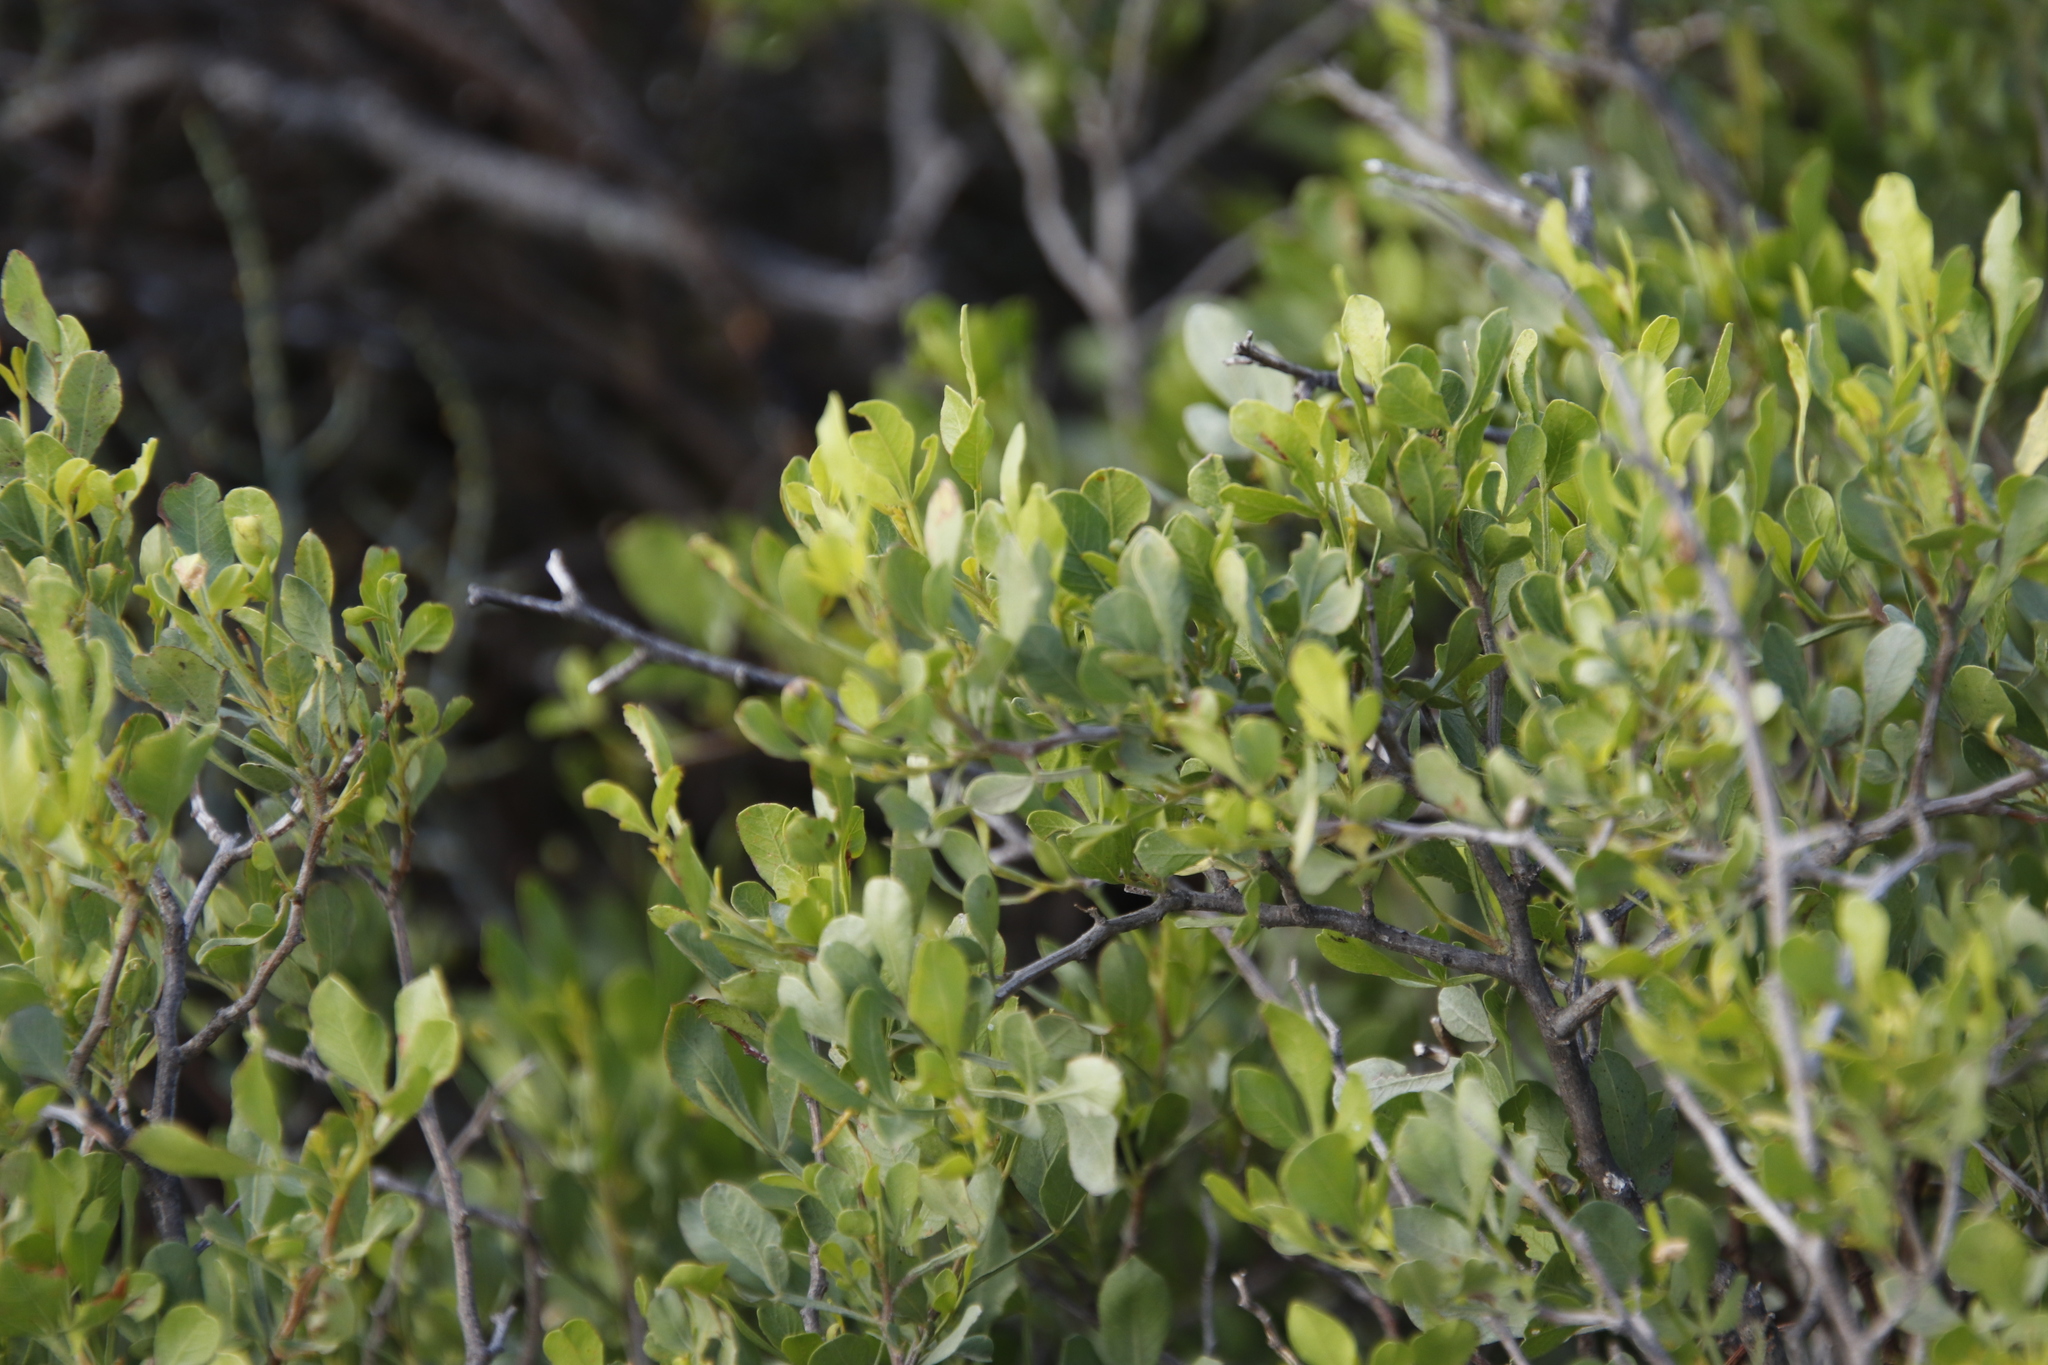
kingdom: Plantae
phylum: Tracheophyta
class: Magnoliopsida
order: Sapindales
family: Anacardiaceae
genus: Searsia
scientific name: Searsia undulata
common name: Namaqua kunibush
